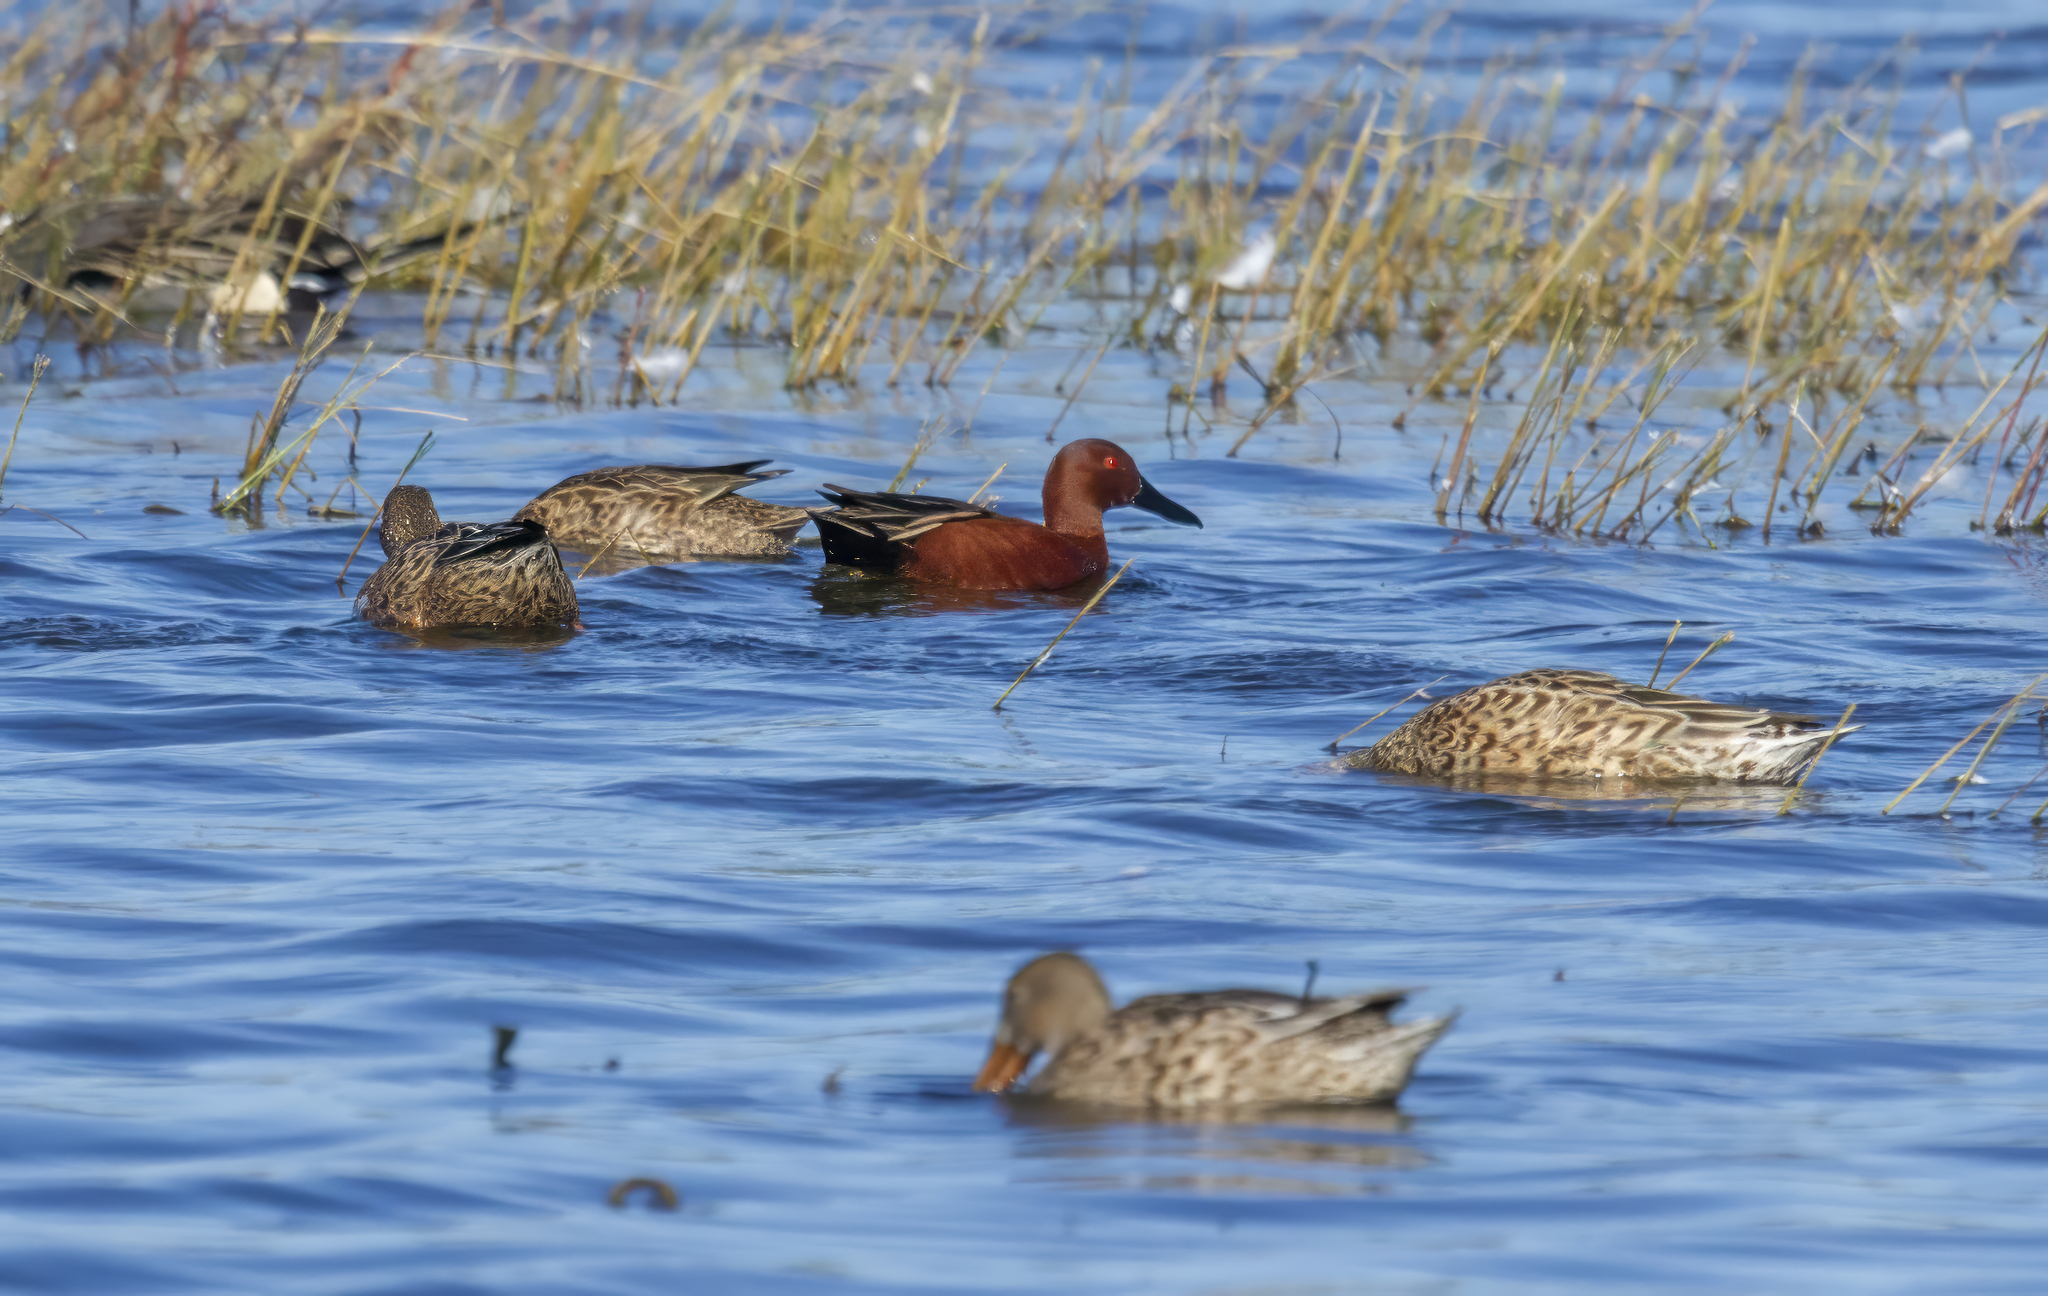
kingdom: Animalia
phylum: Chordata
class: Aves
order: Anseriformes
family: Anatidae
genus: Spatula
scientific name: Spatula cyanoptera
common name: Cinnamon teal
